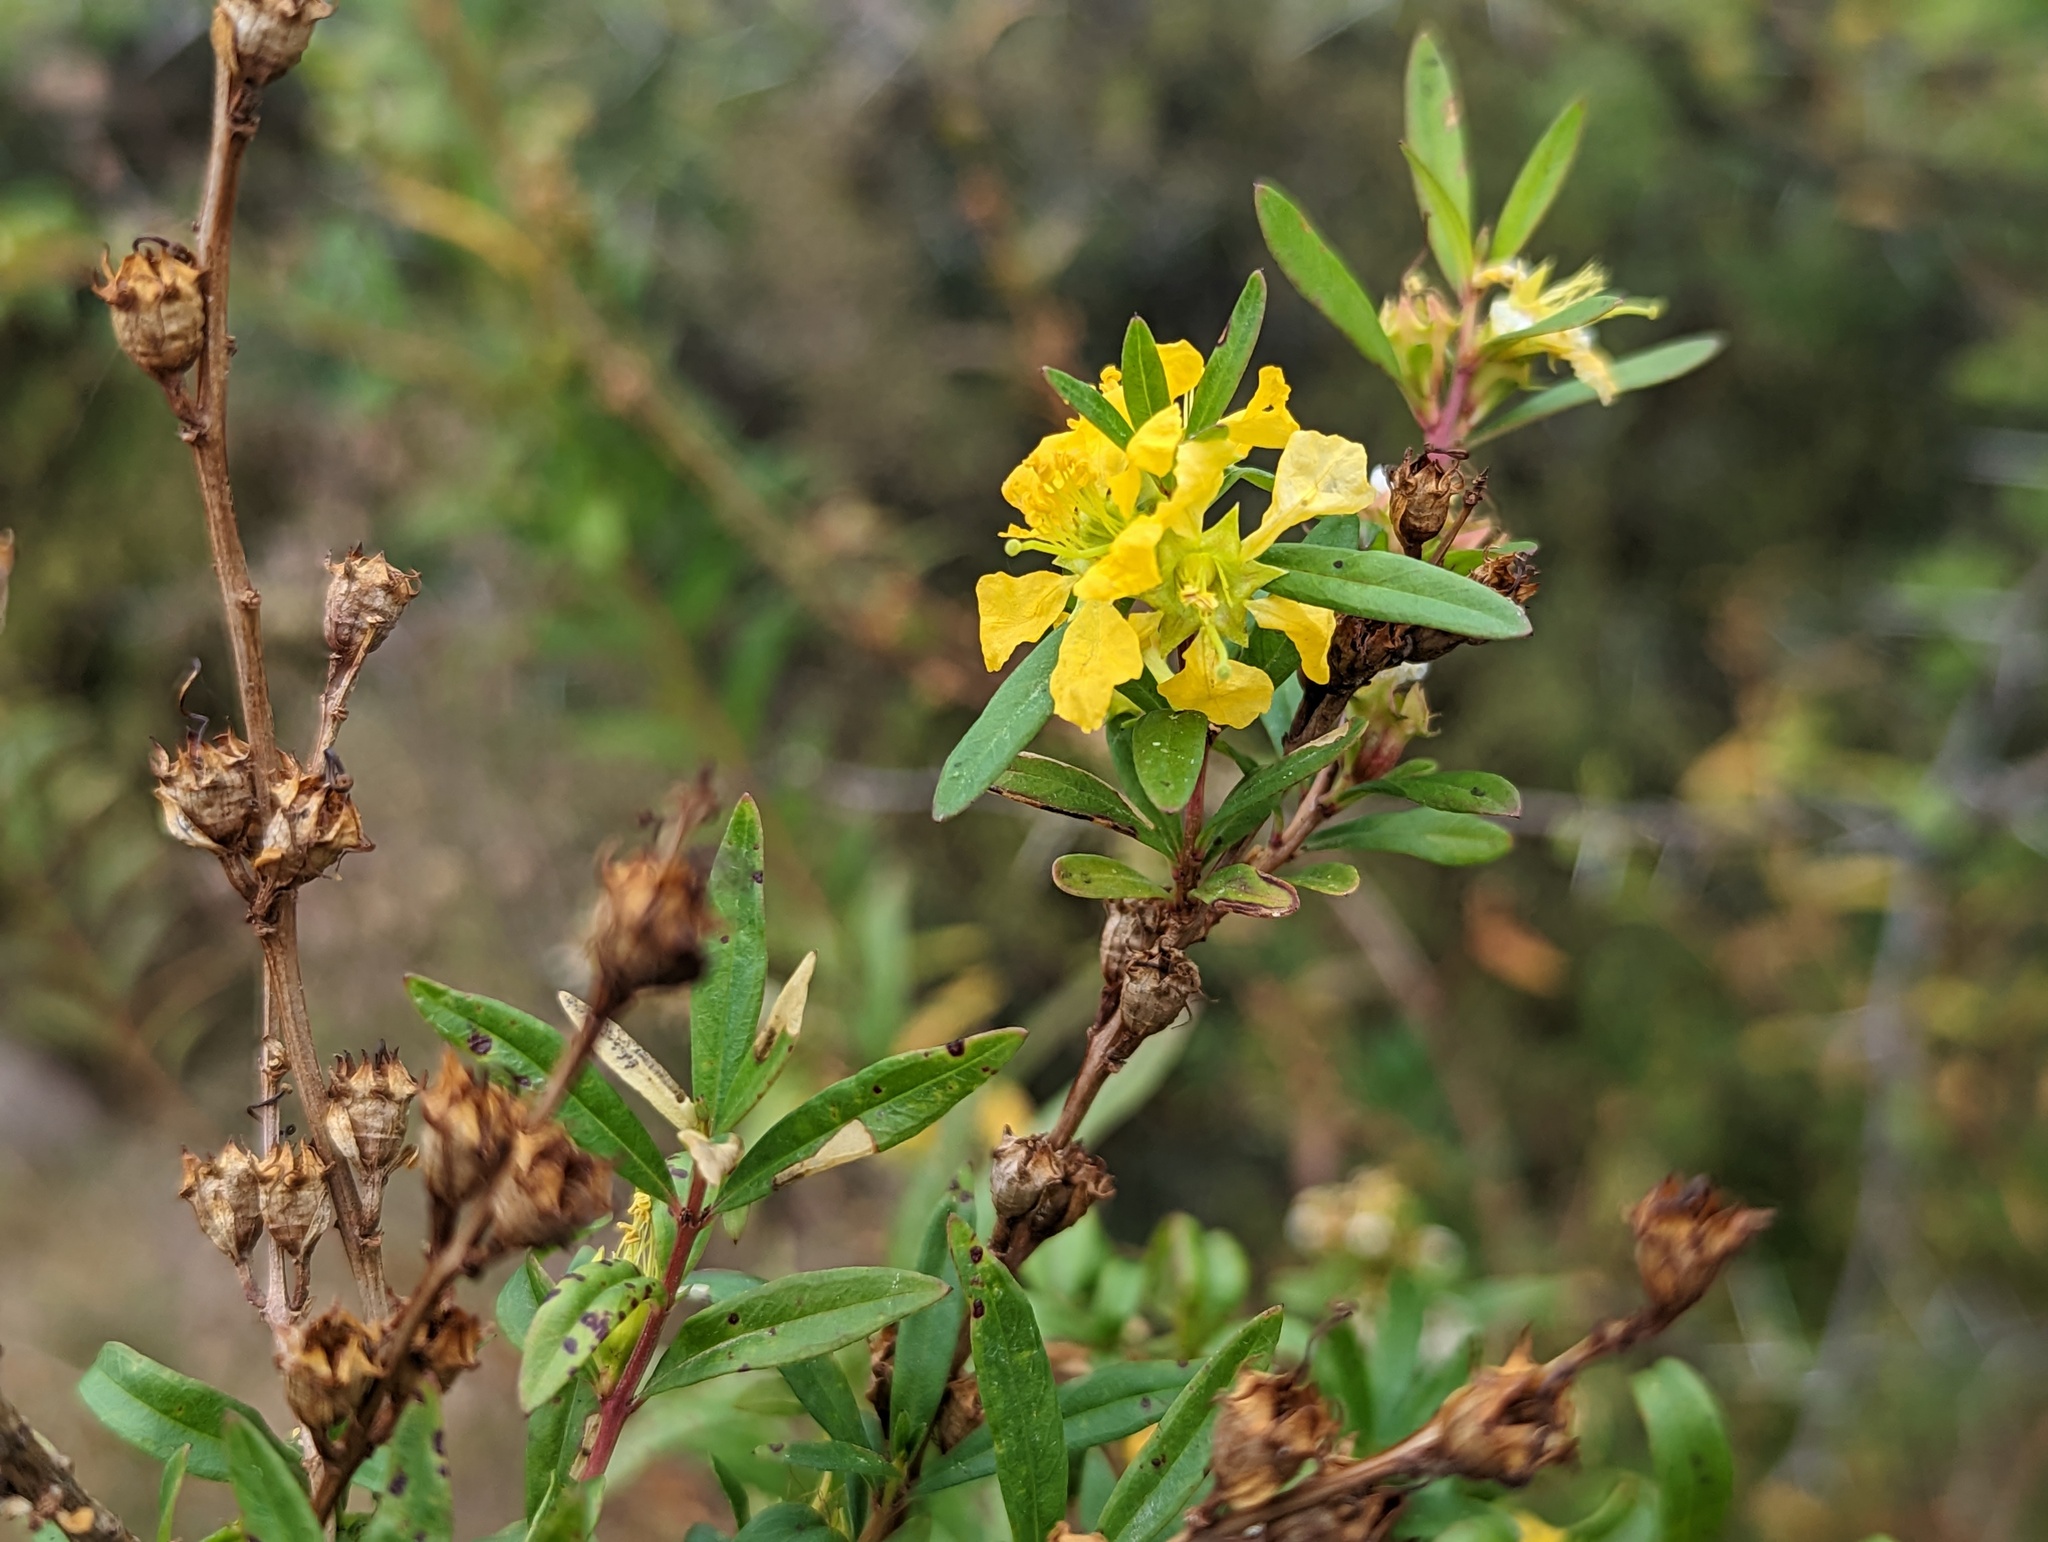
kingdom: Plantae
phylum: Tracheophyta
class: Magnoliopsida
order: Myrtales
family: Lythraceae
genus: Heimia
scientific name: Heimia salicifolia
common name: Willow-leaf heimia
